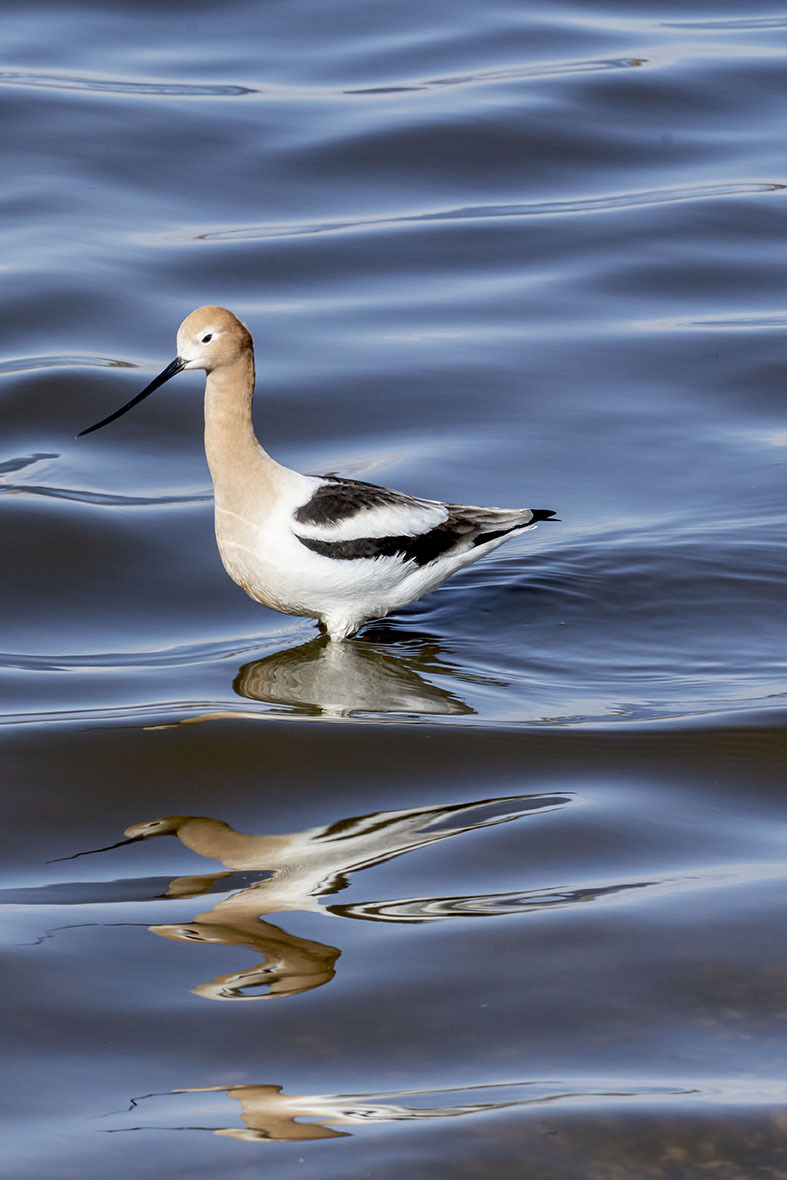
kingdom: Animalia
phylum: Chordata
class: Aves
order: Charadriiformes
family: Recurvirostridae
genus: Recurvirostra
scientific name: Recurvirostra americana
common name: American avocet
